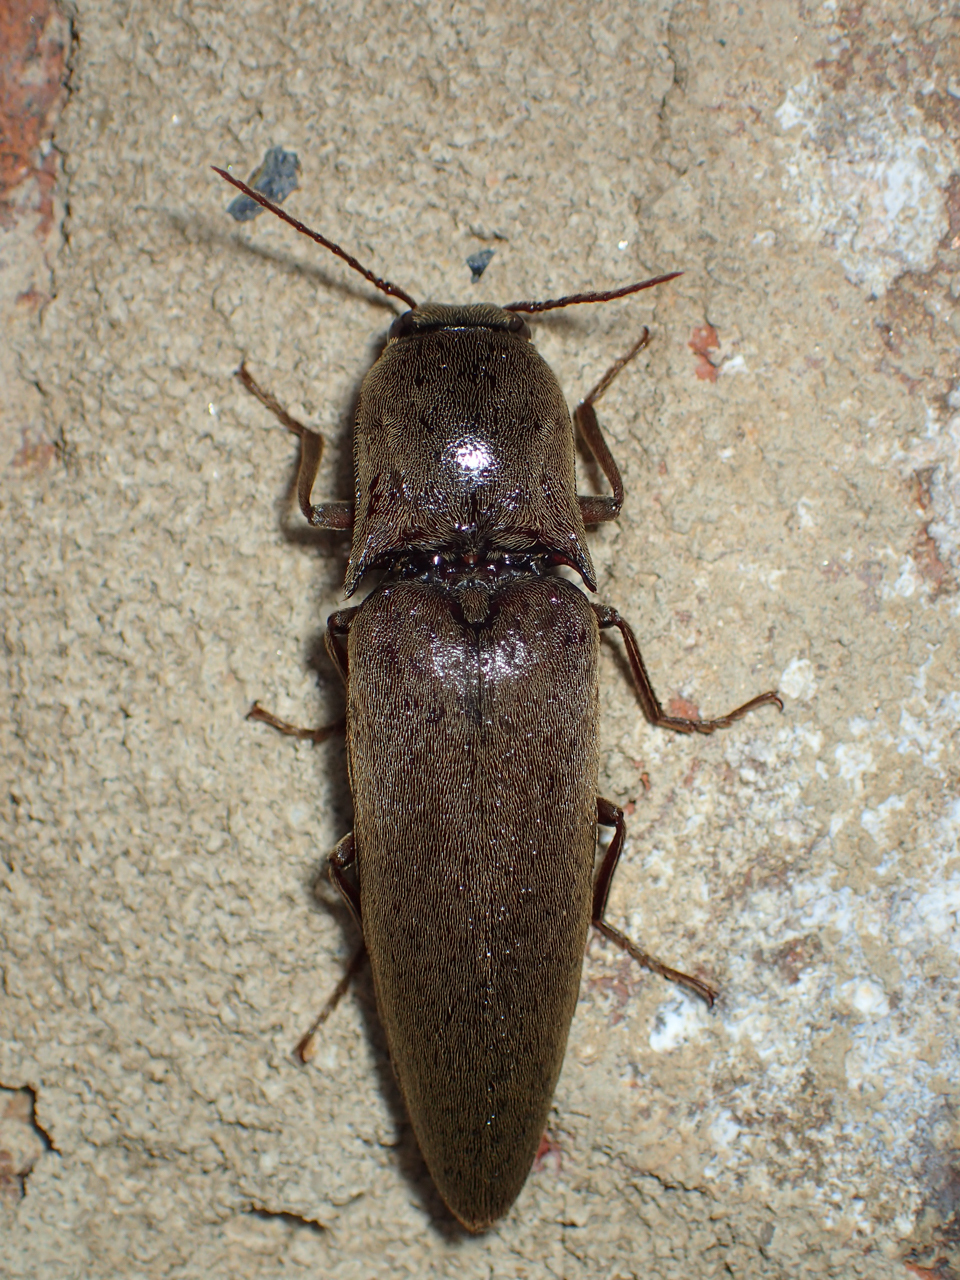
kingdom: Animalia
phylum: Arthropoda
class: Insecta
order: Coleoptera
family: Elateridae
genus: Orthostethus
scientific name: Orthostethus infuscatus
